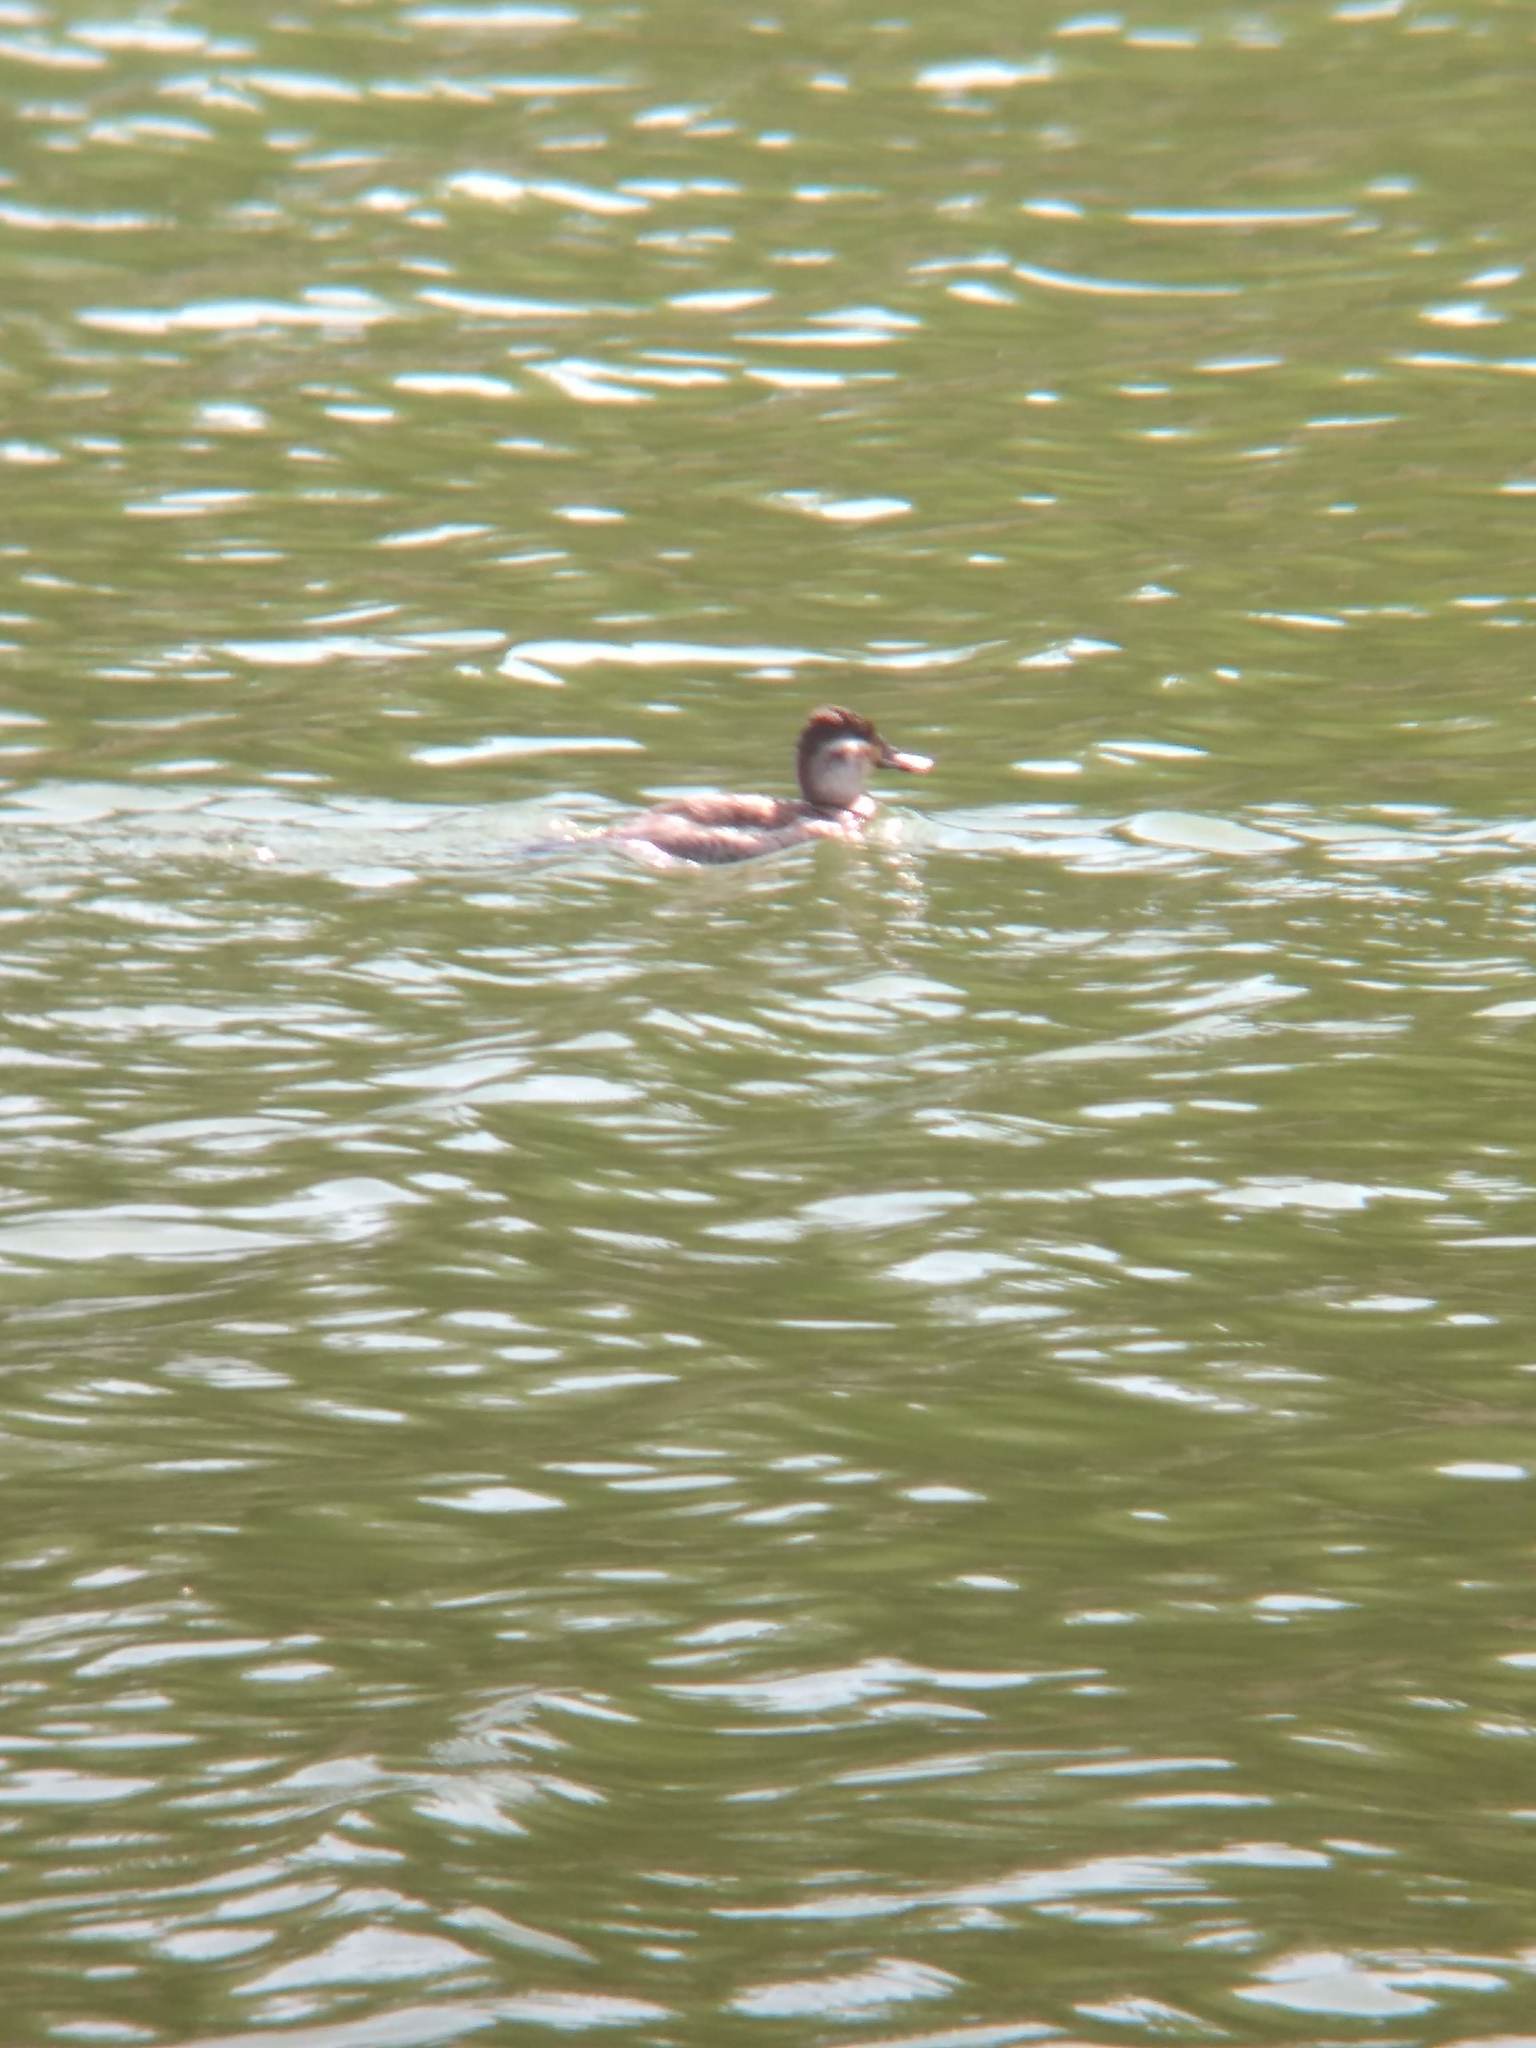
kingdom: Animalia
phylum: Chordata
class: Aves
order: Anseriformes
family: Anatidae
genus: Oxyura
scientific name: Oxyura jamaicensis
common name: Ruddy duck
